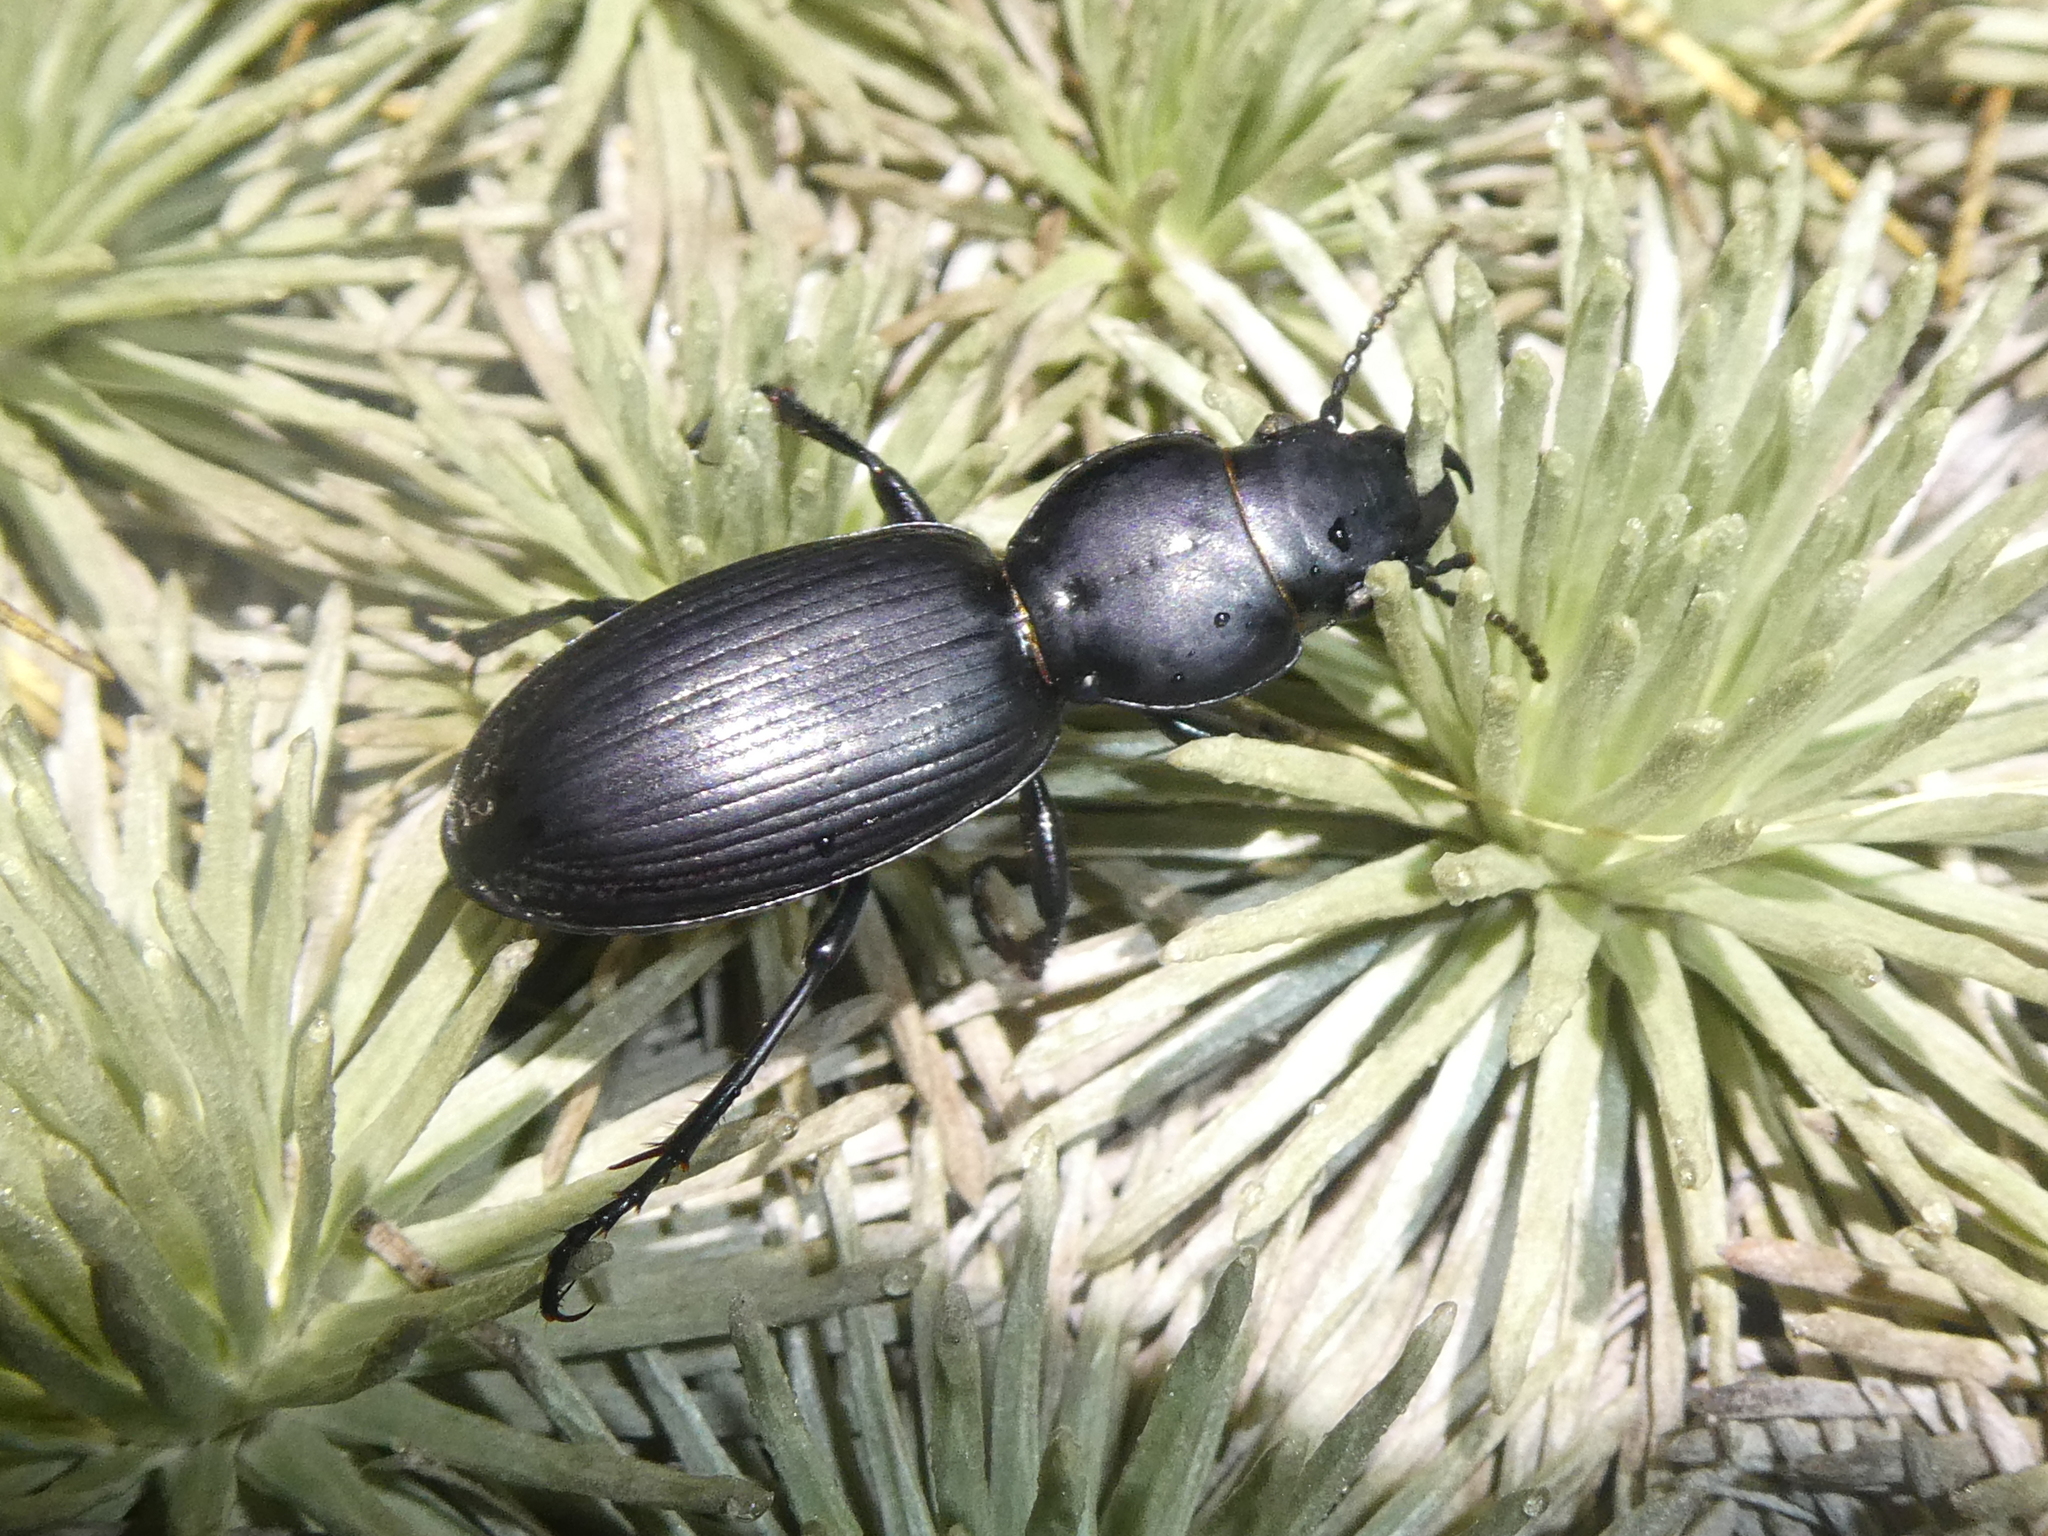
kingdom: Animalia
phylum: Arthropoda
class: Insecta
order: Coleoptera
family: Carabidae
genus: Mecodema
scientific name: Mecodema fulgidum
